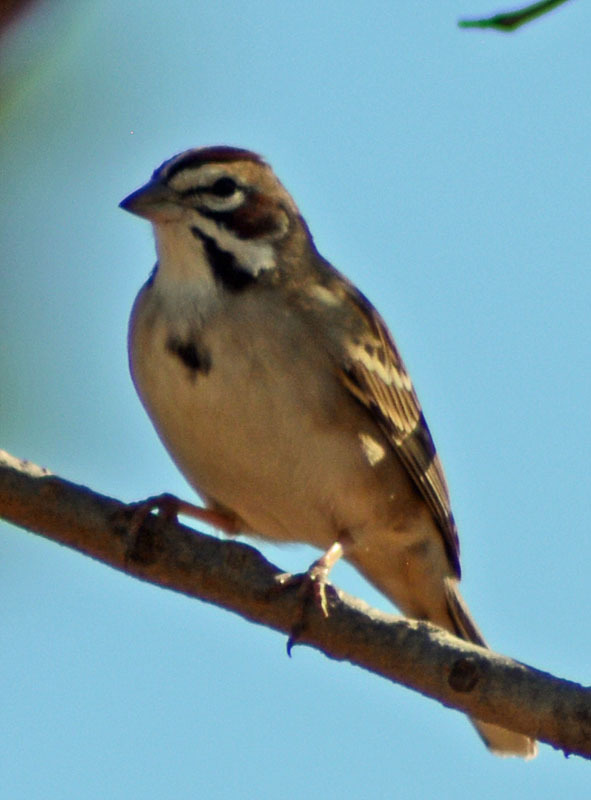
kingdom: Animalia
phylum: Chordata
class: Aves
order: Passeriformes
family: Passerellidae
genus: Chondestes
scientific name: Chondestes grammacus
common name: Lark sparrow
